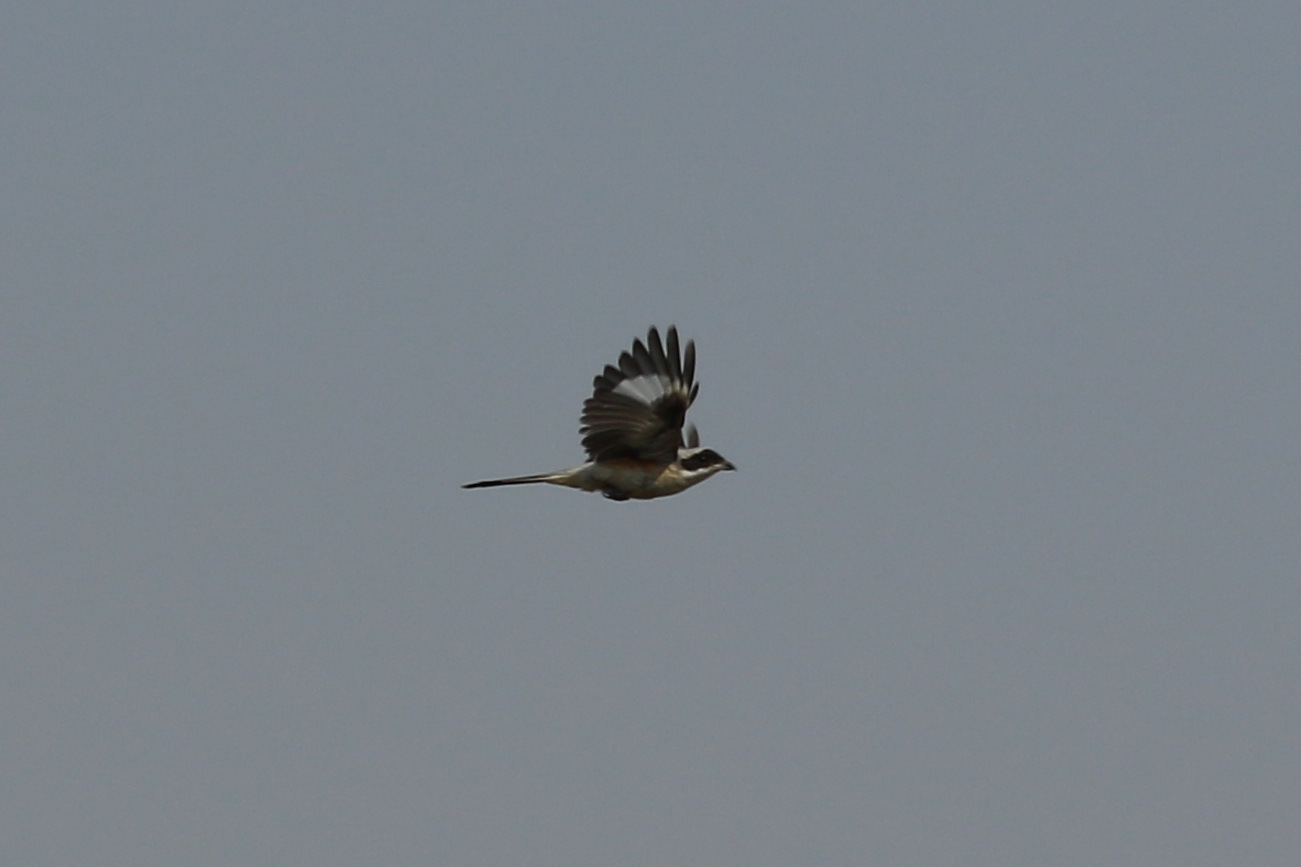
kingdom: Animalia
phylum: Chordata
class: Aves
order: Passeriformes
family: Laniidae
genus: Lanius
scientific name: Lanius vittatus
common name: Bay-backed shrike
